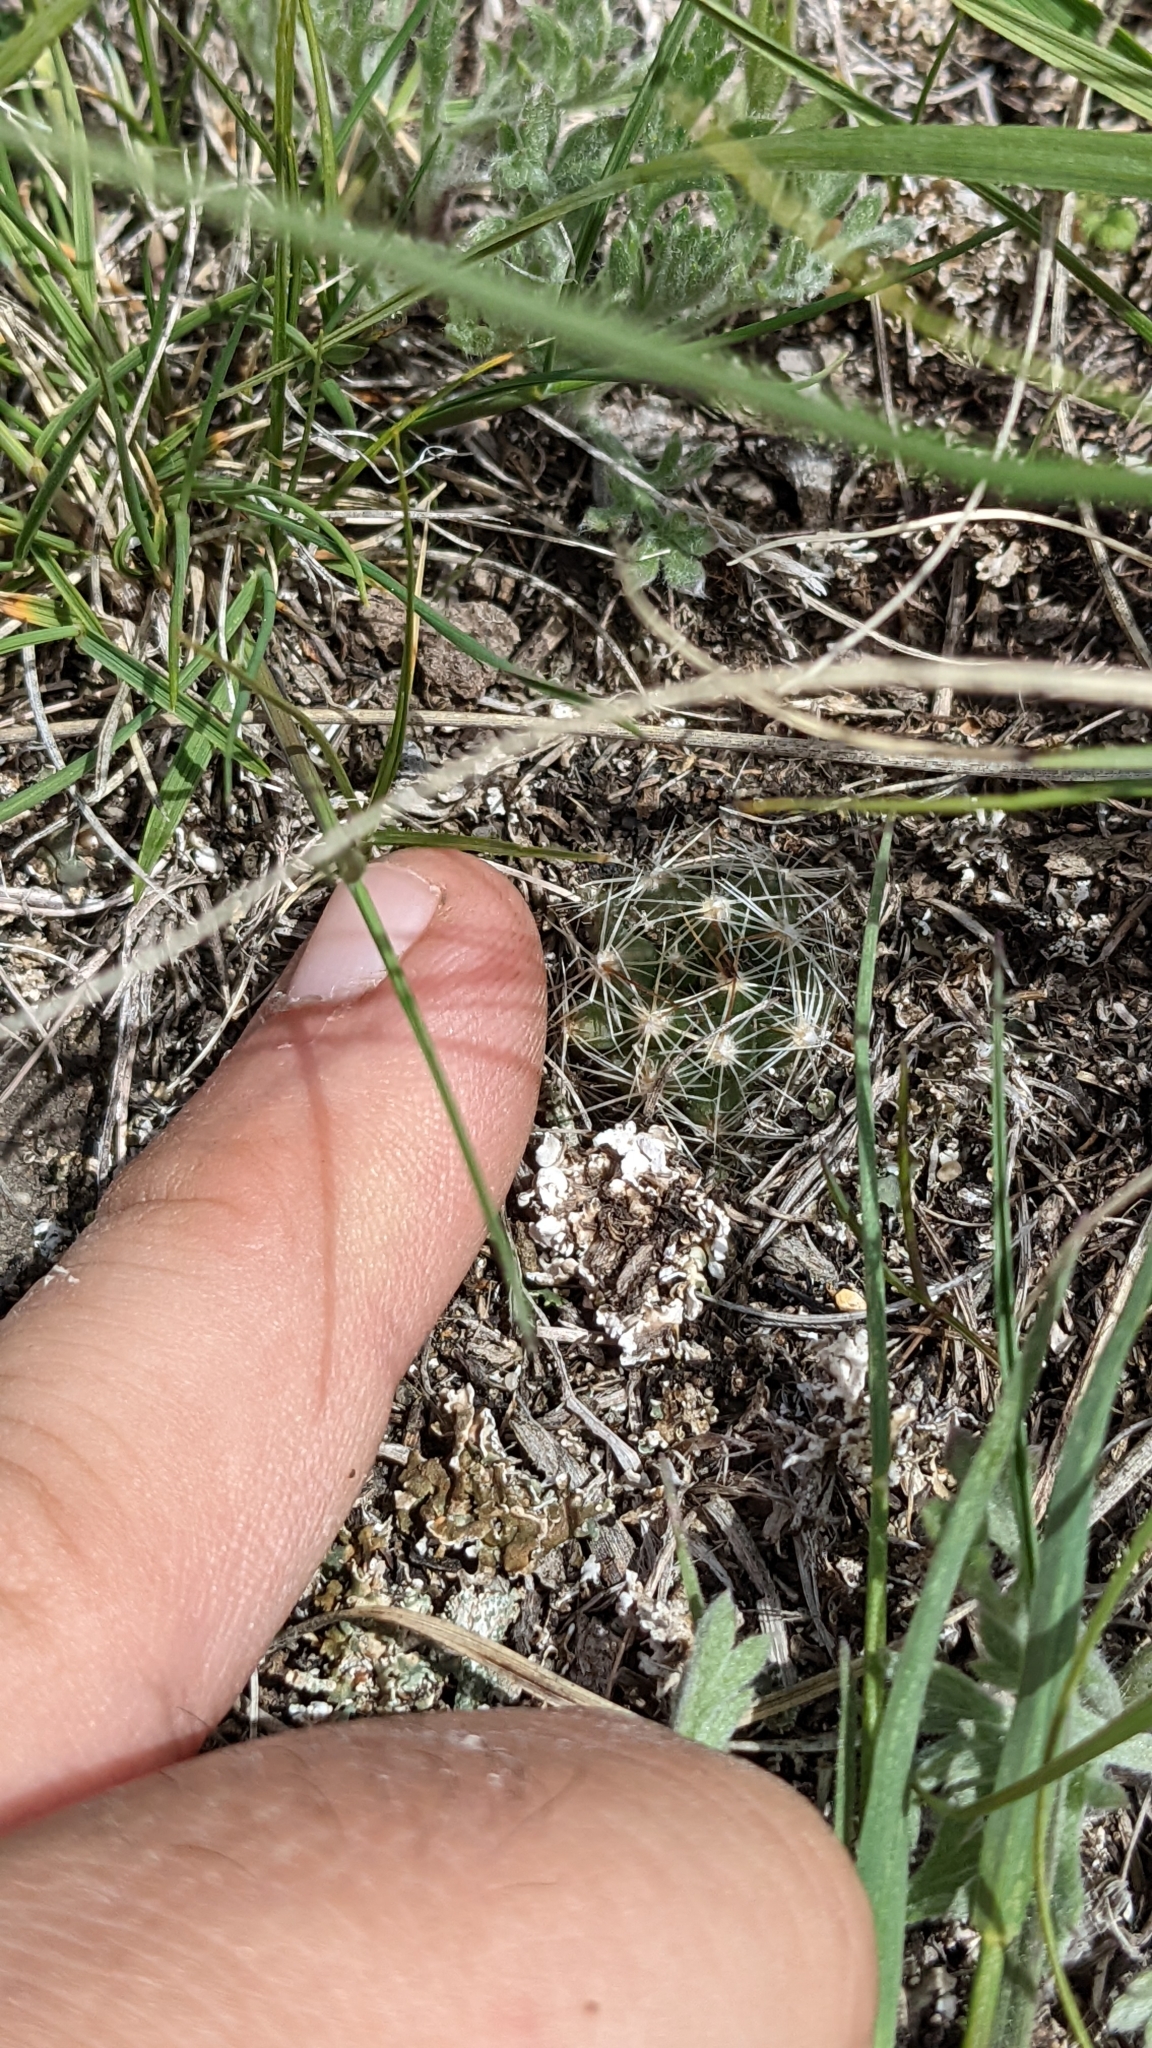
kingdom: Plantae
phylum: Tracheophyta
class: Magnoliopsida
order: Caryophyllales
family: Cactaceae
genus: Pelecyphora
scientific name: Pelecyphora vivipara
